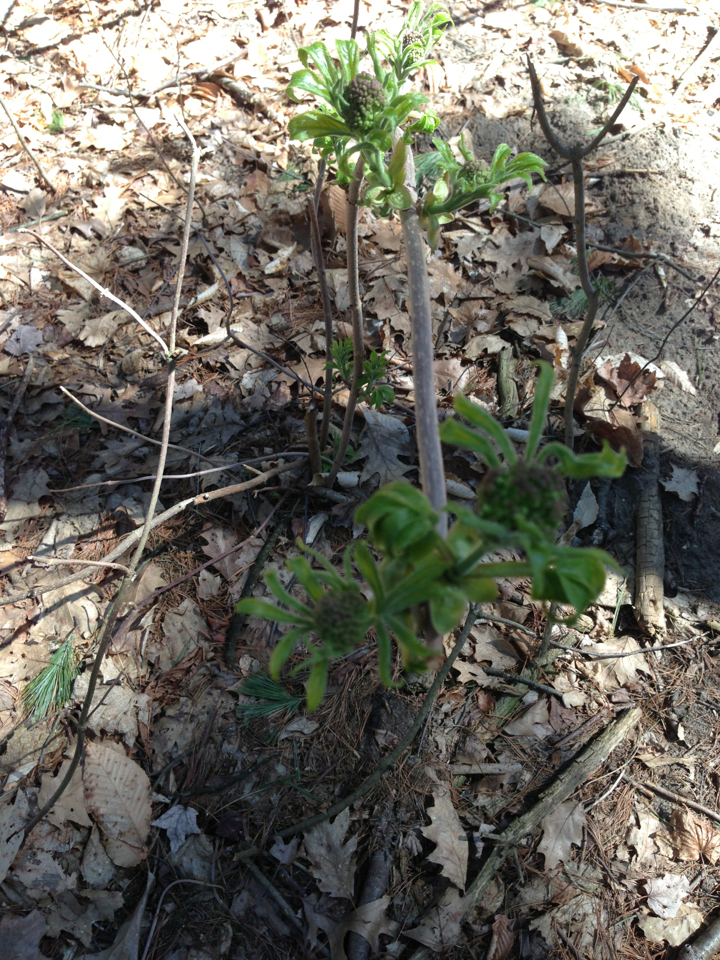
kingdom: Plantae
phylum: Tracheophyta
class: Magnoliopsida
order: Dipsacales
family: Viburnaceae
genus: Sambucus
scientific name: Sambucus racemosa
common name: Red-berried elder
